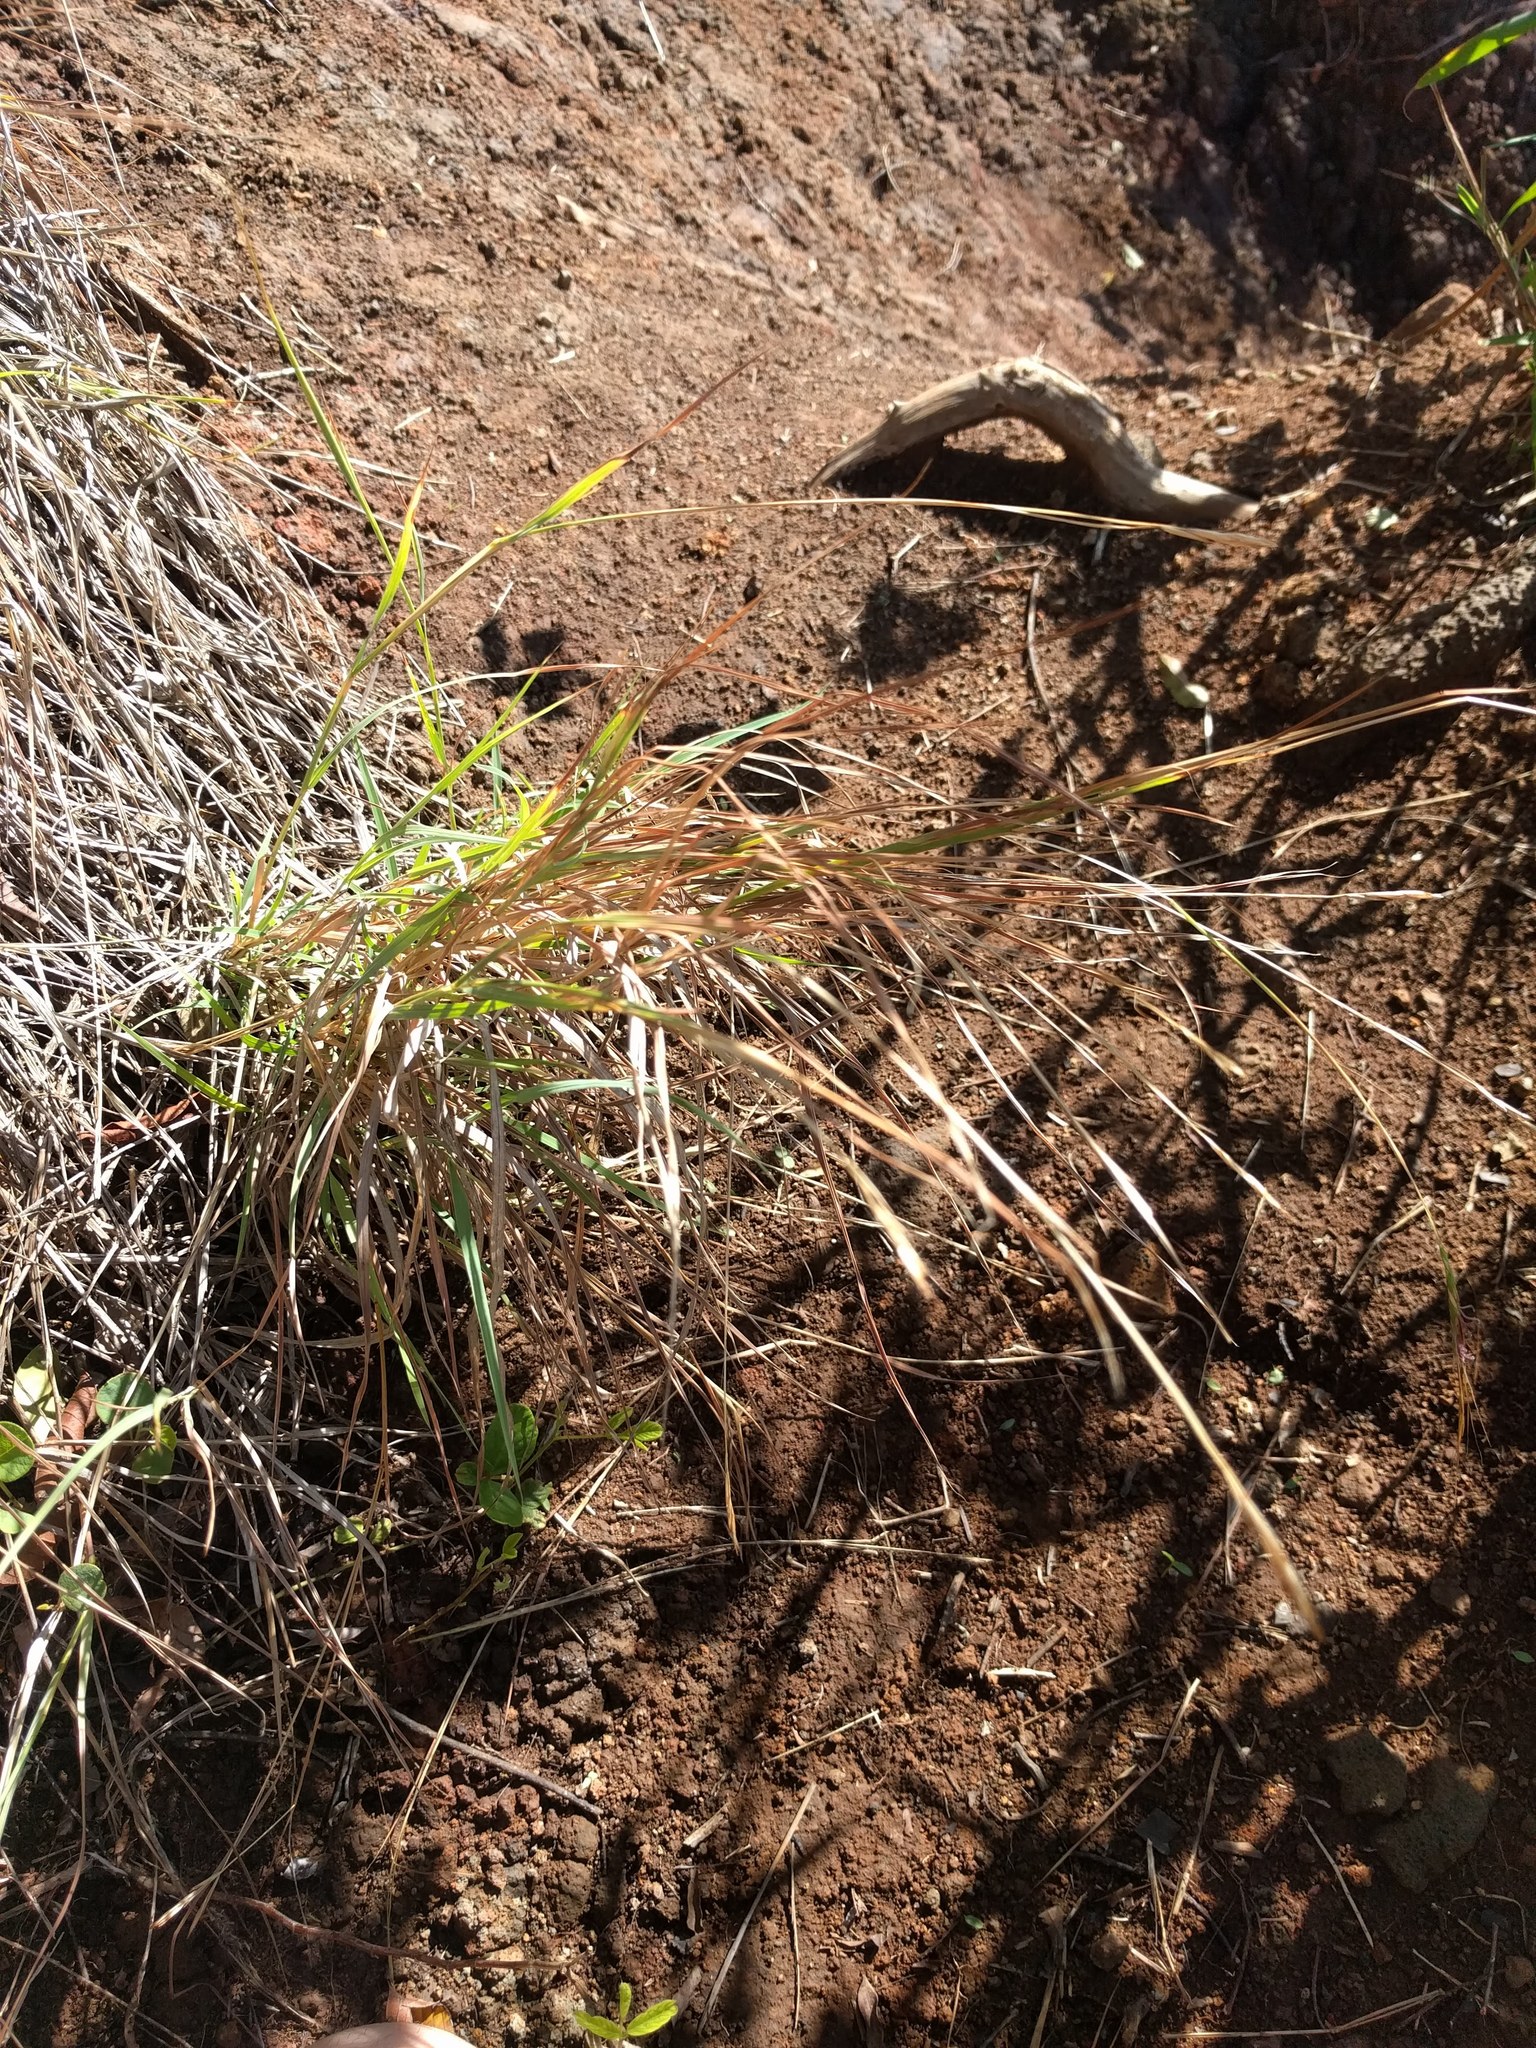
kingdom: Plantae
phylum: Tracheophyta
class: Liliopsida
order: Poales
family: Poaceae
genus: Heteropogon
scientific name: Heteropogon contortus
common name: Tanglehead
